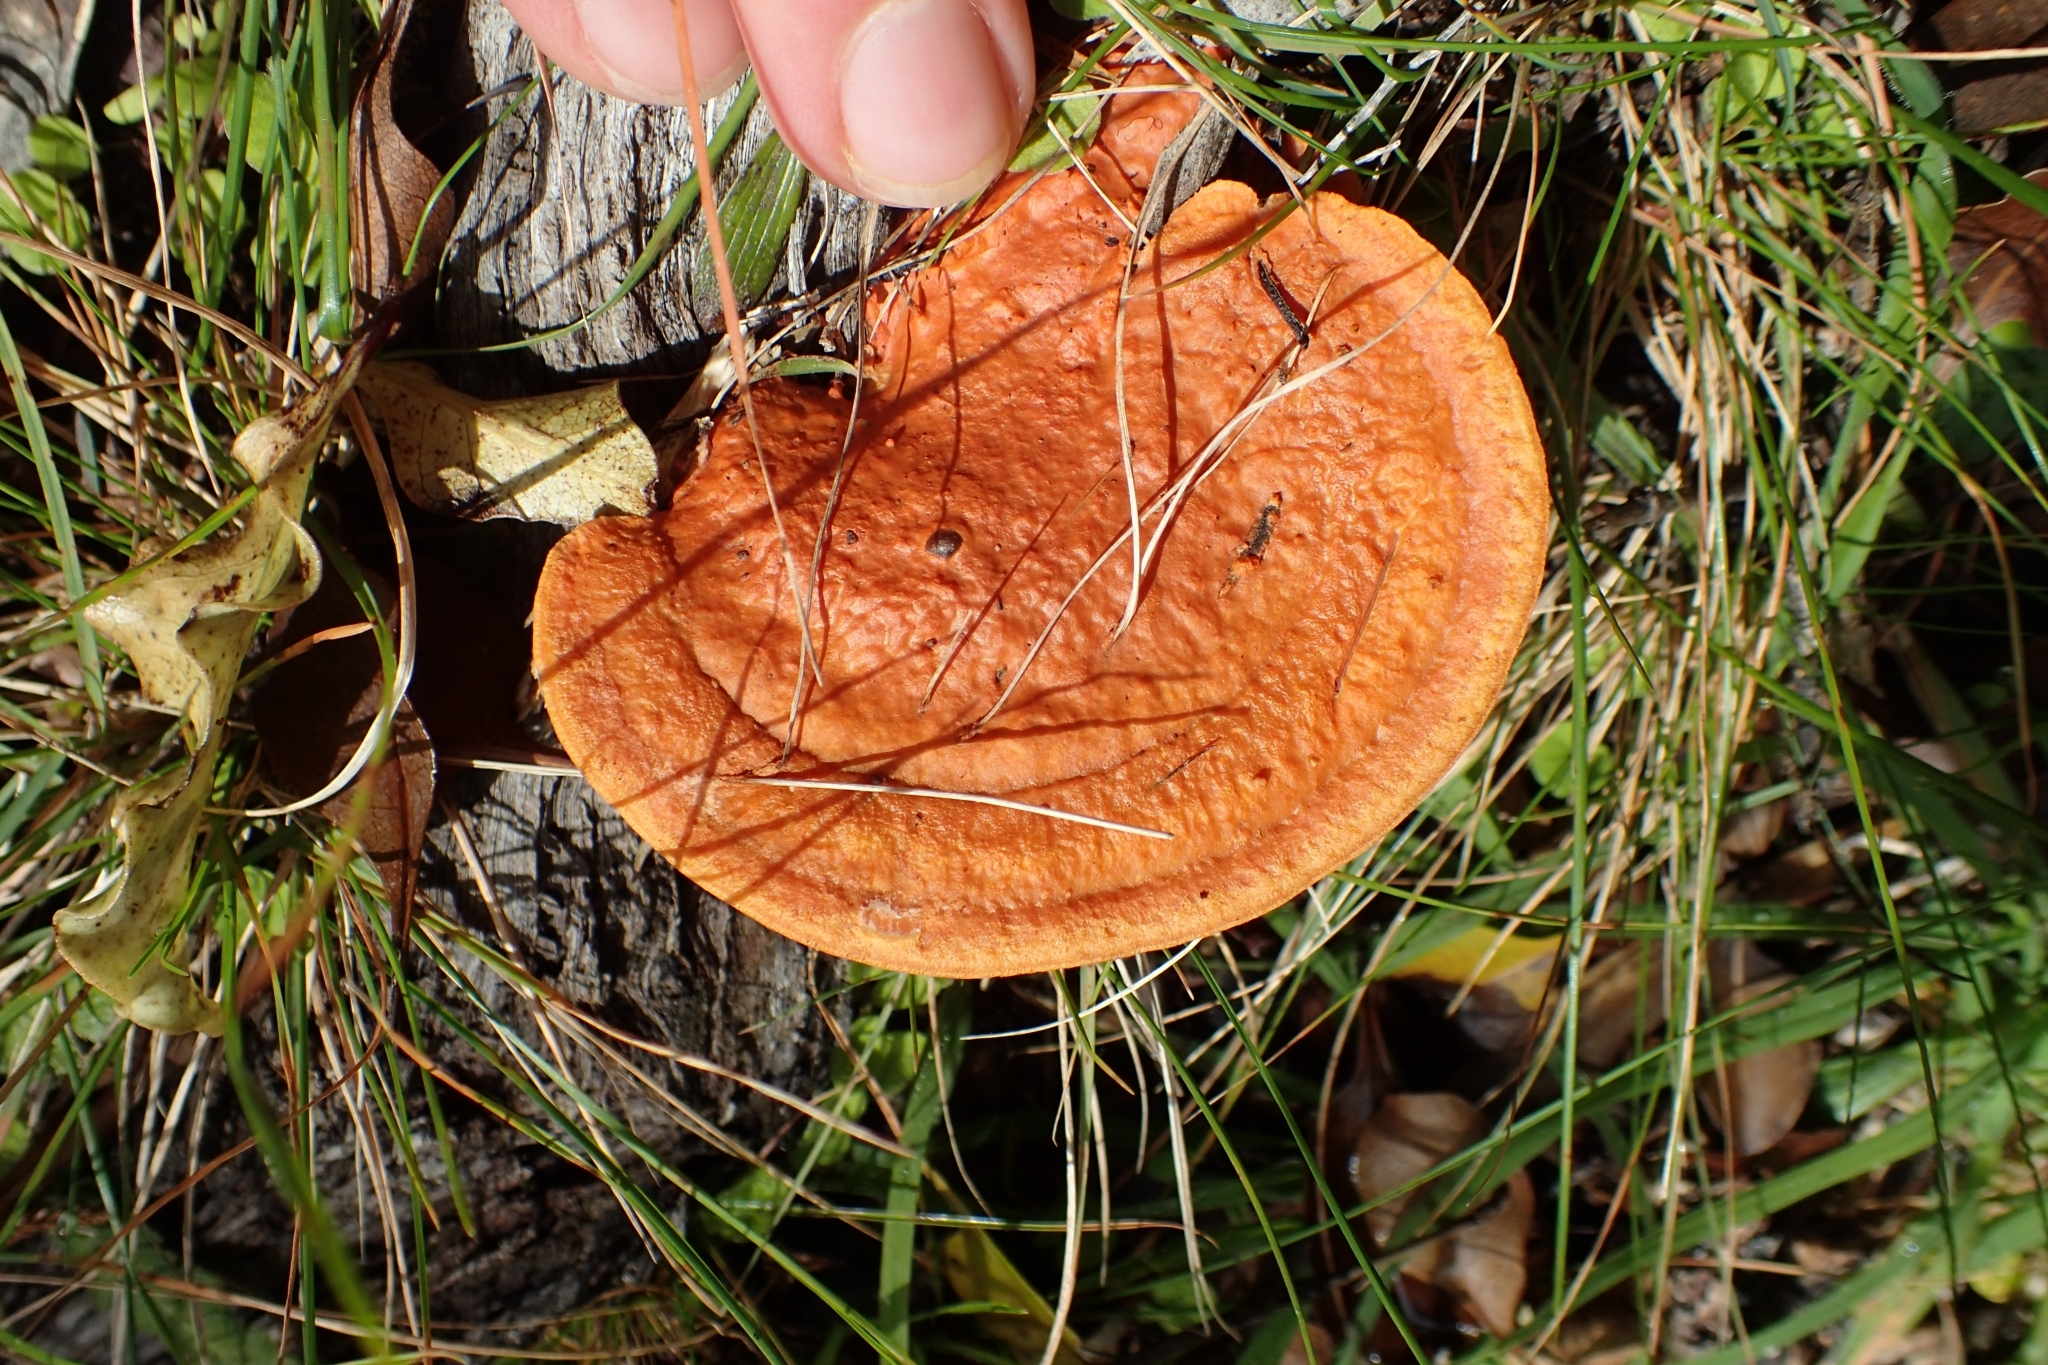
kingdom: Fungi
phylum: Basidiomycota
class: Agaricomycetes
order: Polyporales
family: Polyporaceae
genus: Trametes
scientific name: Trametes coccinea
